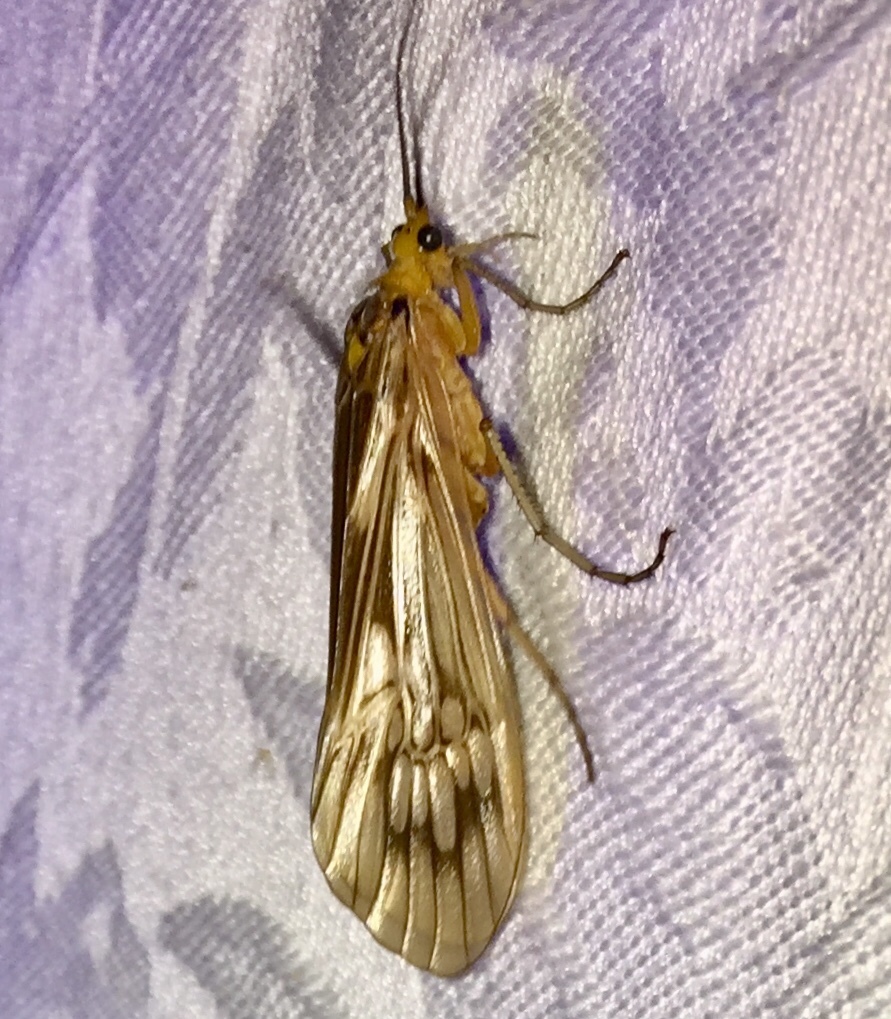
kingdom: Animalia
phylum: Arthropoda
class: Insecta
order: Trichoptera
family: Limnephilidae
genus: Hydatophylax
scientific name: Hydatophylax argus
